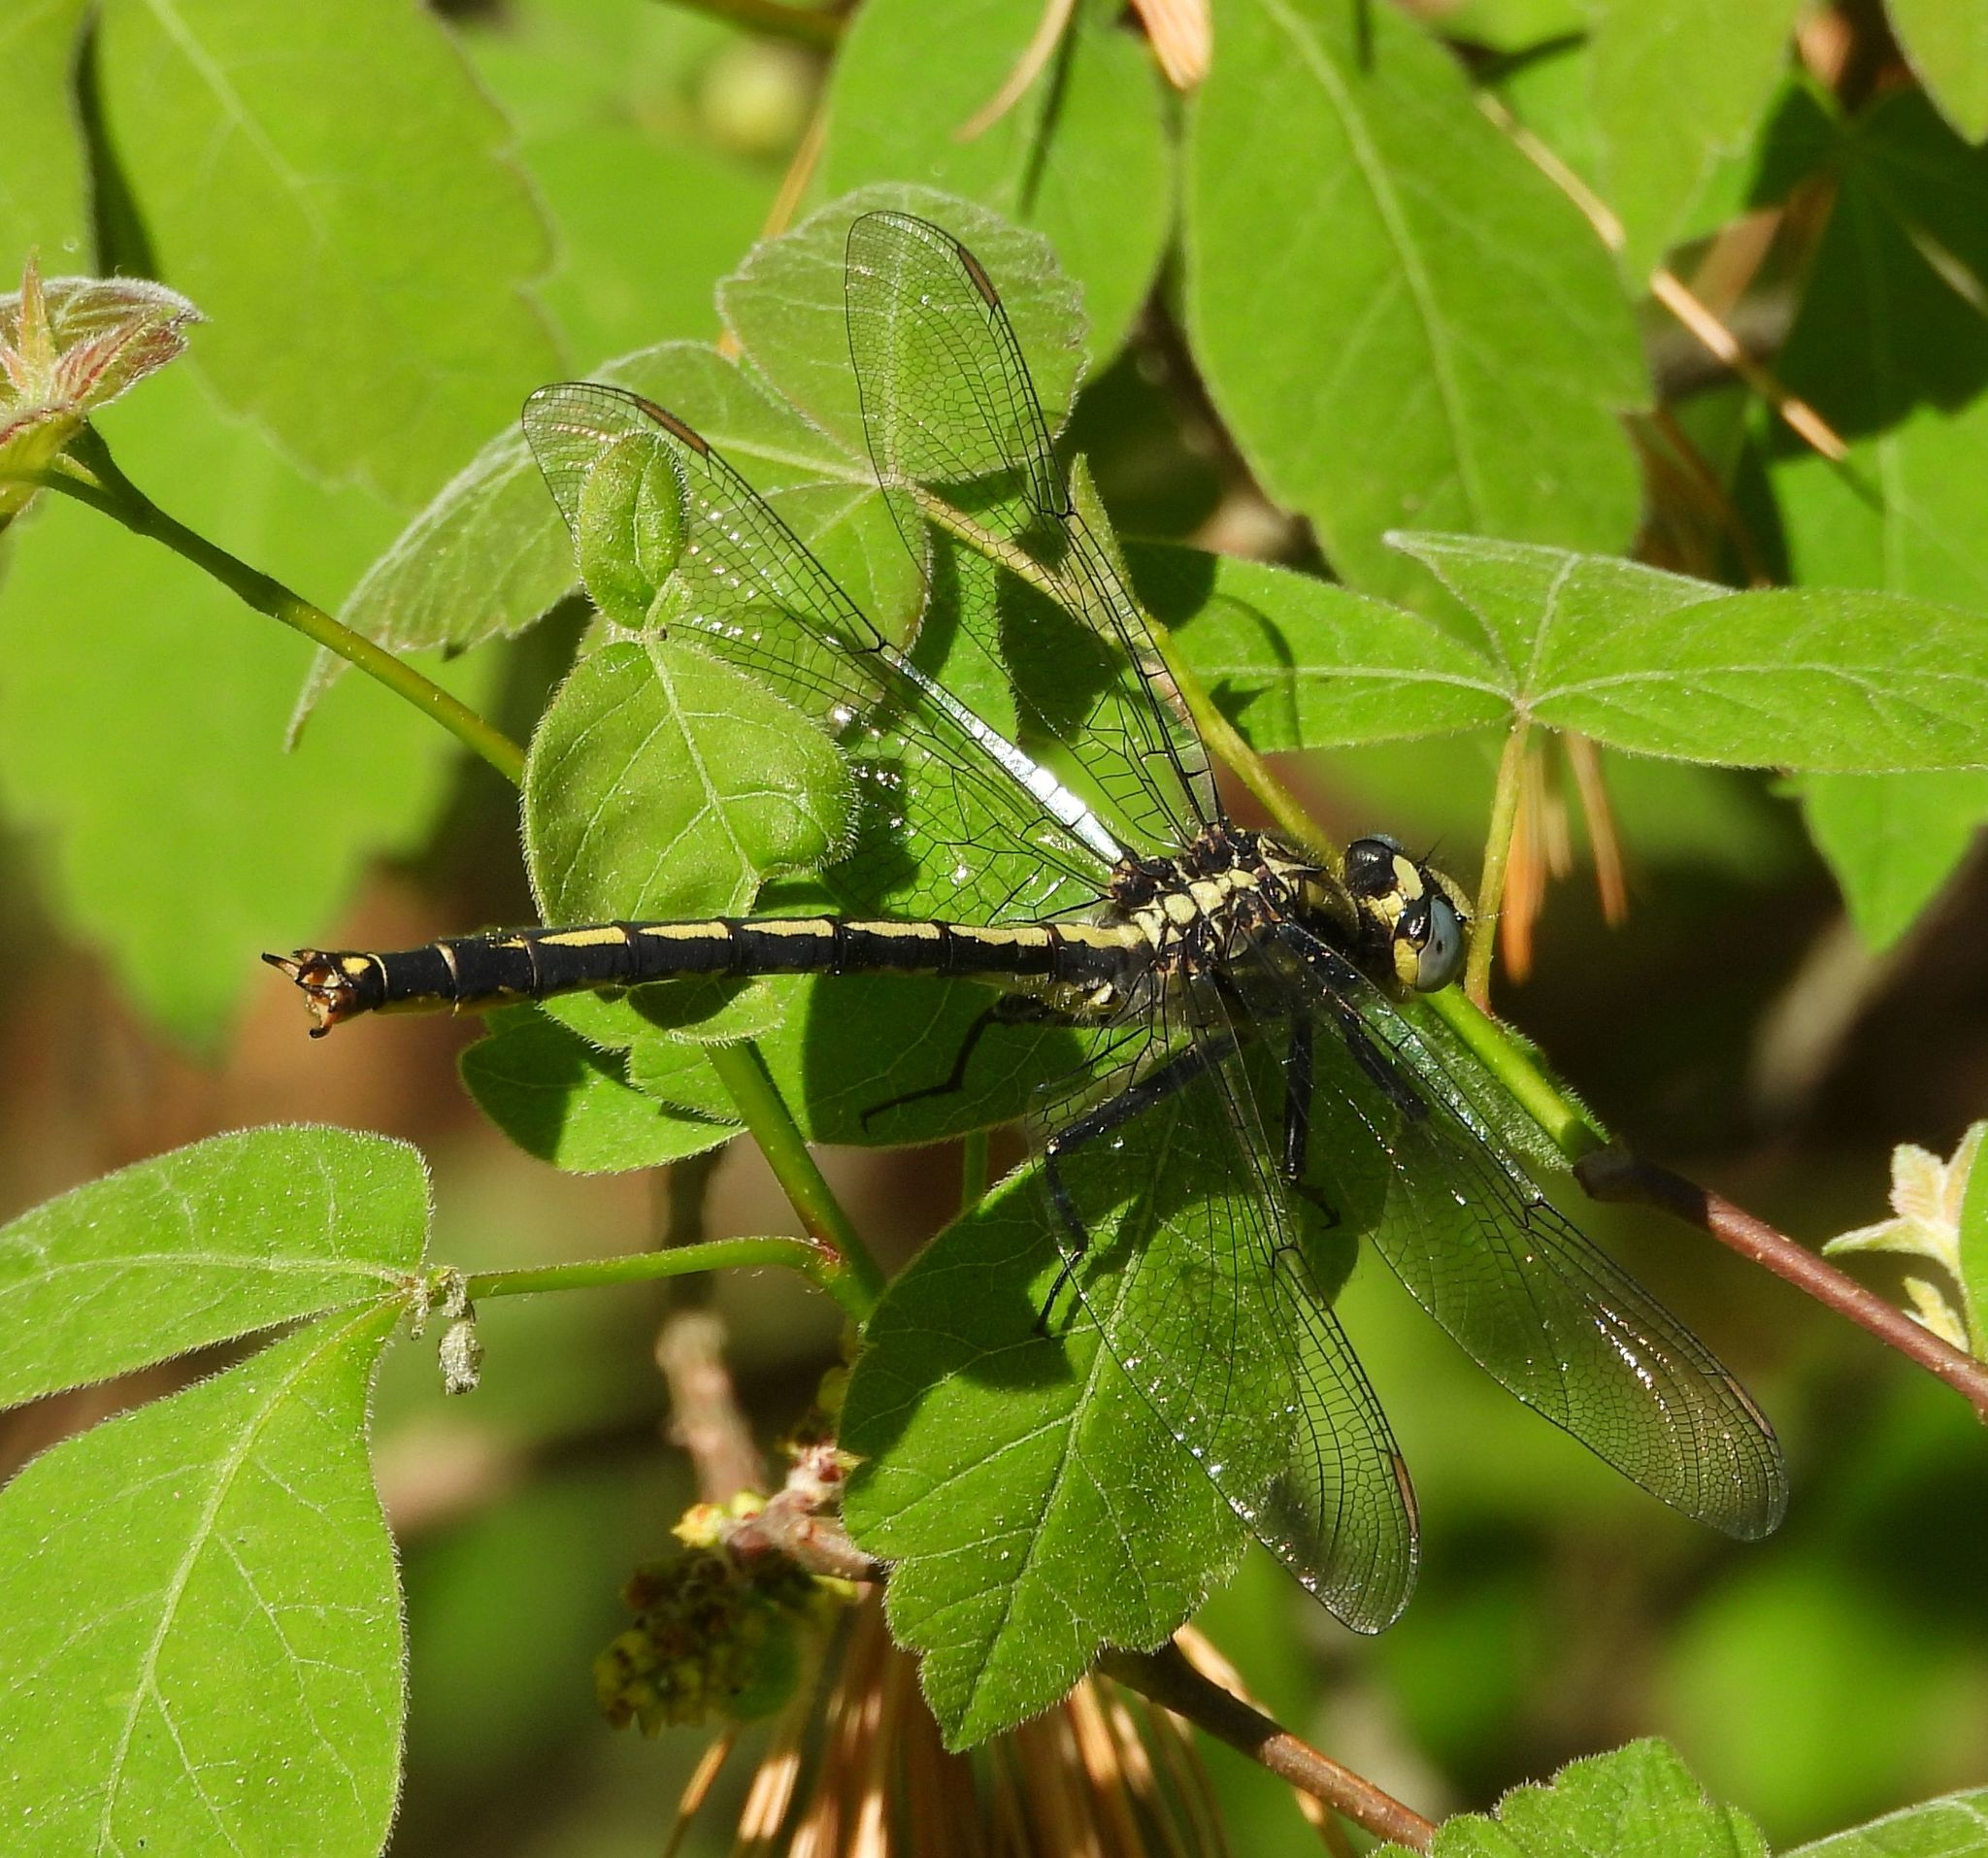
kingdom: Animalia
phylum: Arthropoda
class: Insecta
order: Odonata
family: Gomphidae
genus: Arigomphus
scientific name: Arigomphus cornutus
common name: Horned clubtail
